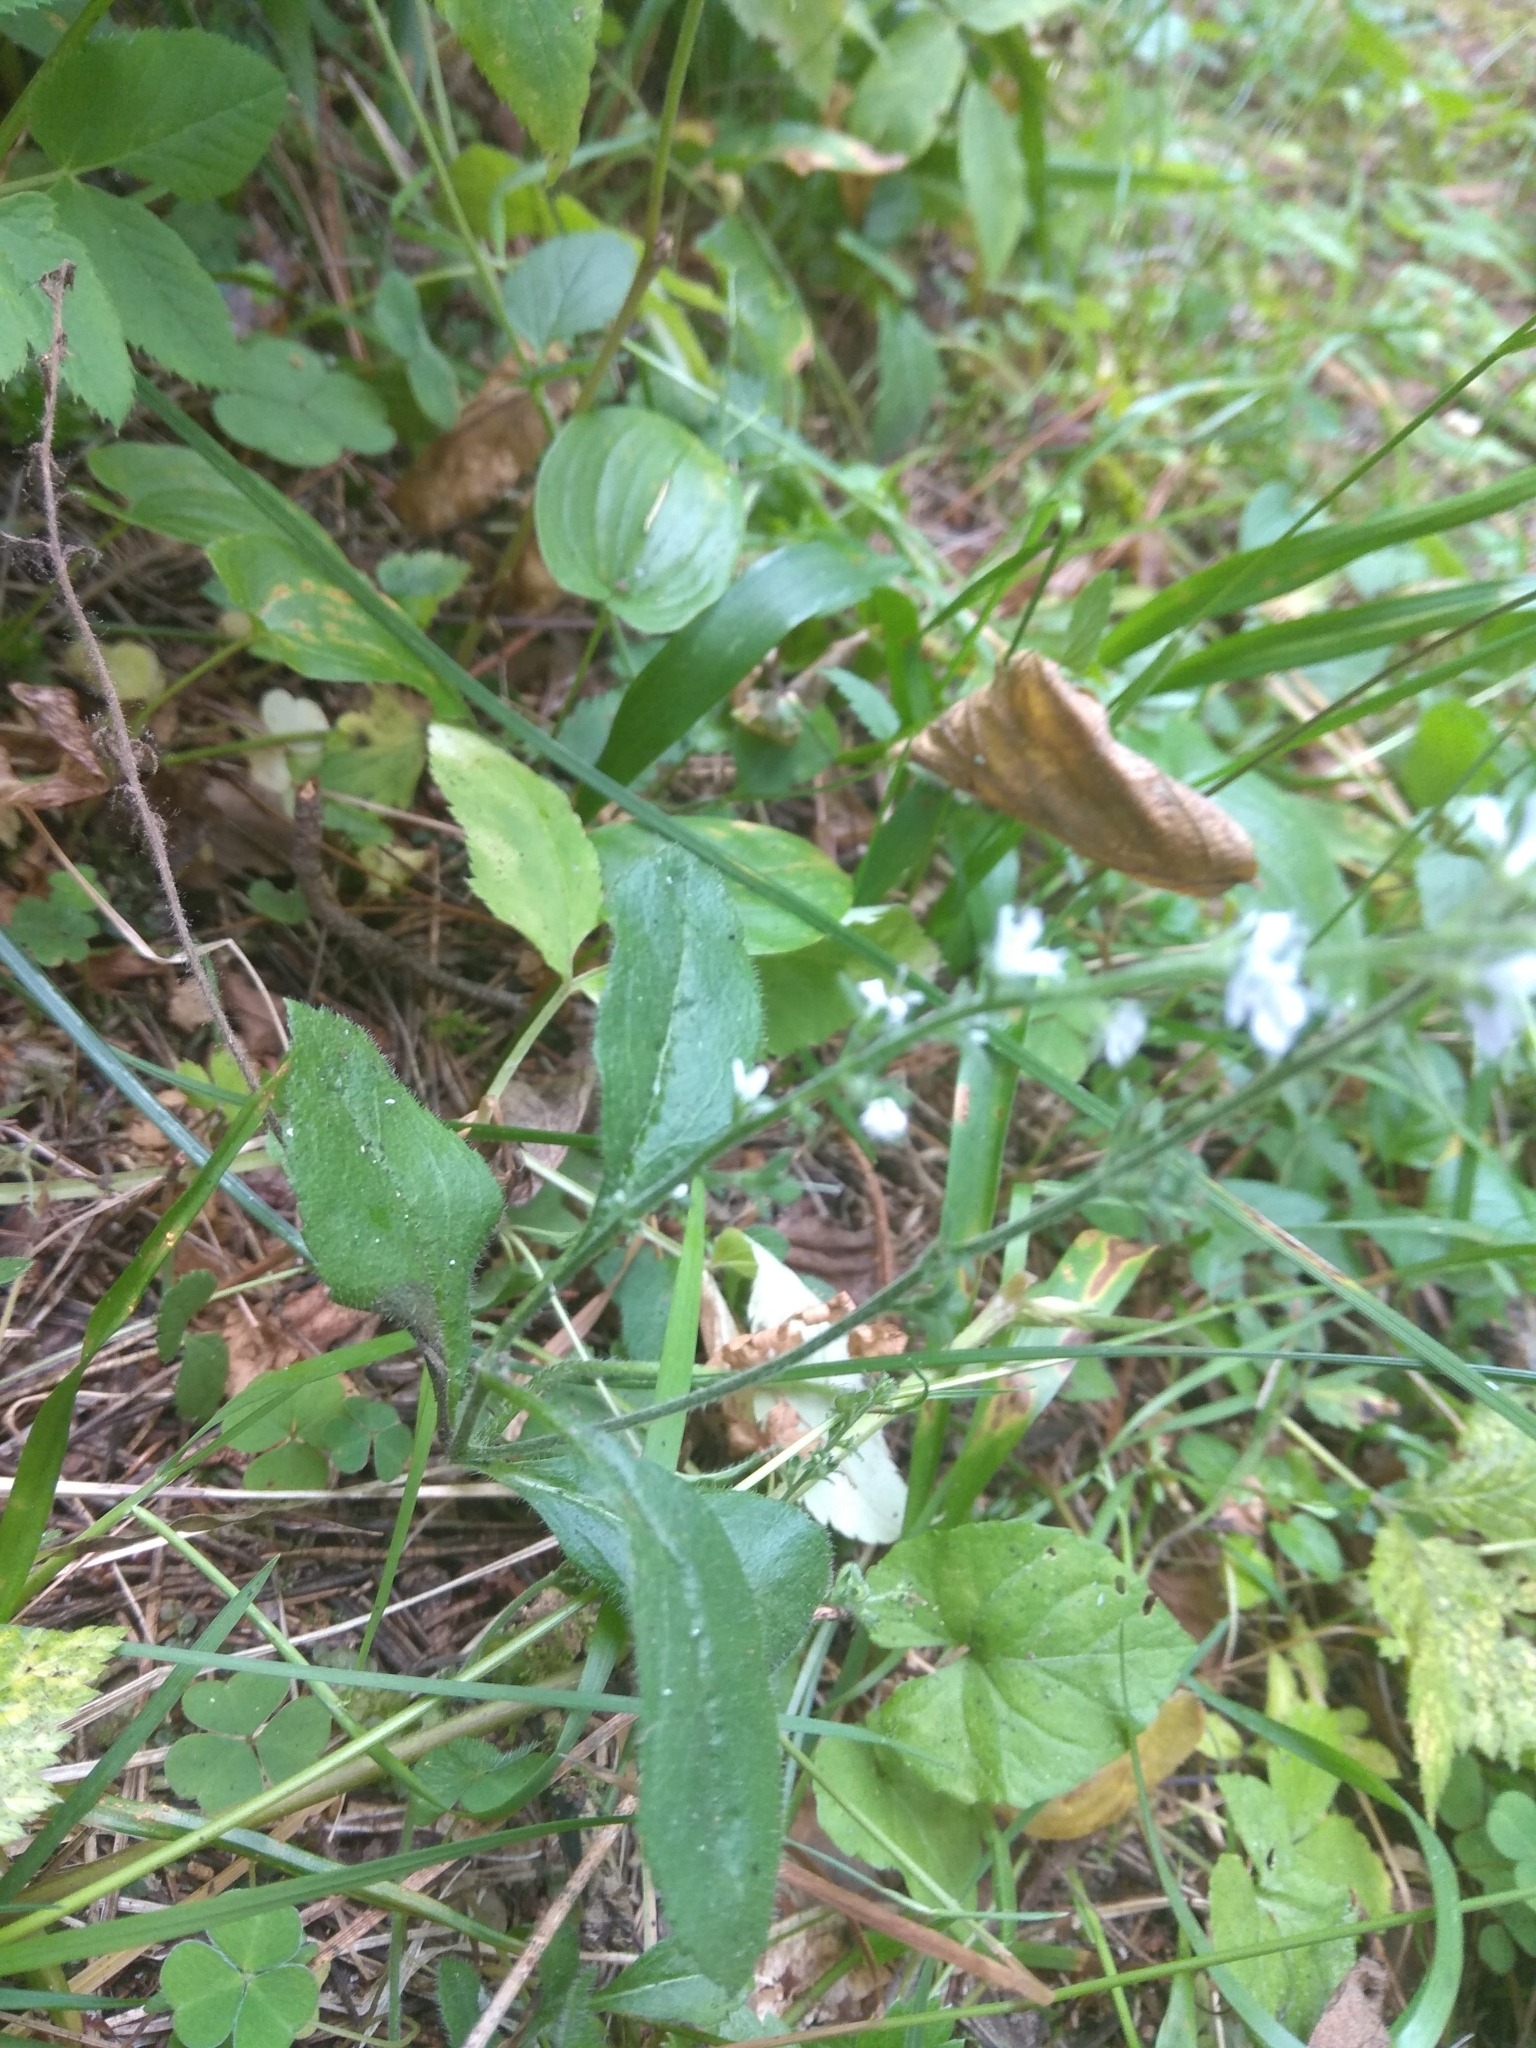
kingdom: Plantae
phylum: Tracheophyta
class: Magnoliopsida
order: Lamiales
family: Plantaginaceae
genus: Veronica
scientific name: Veronica officinalis
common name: Common speedwell
